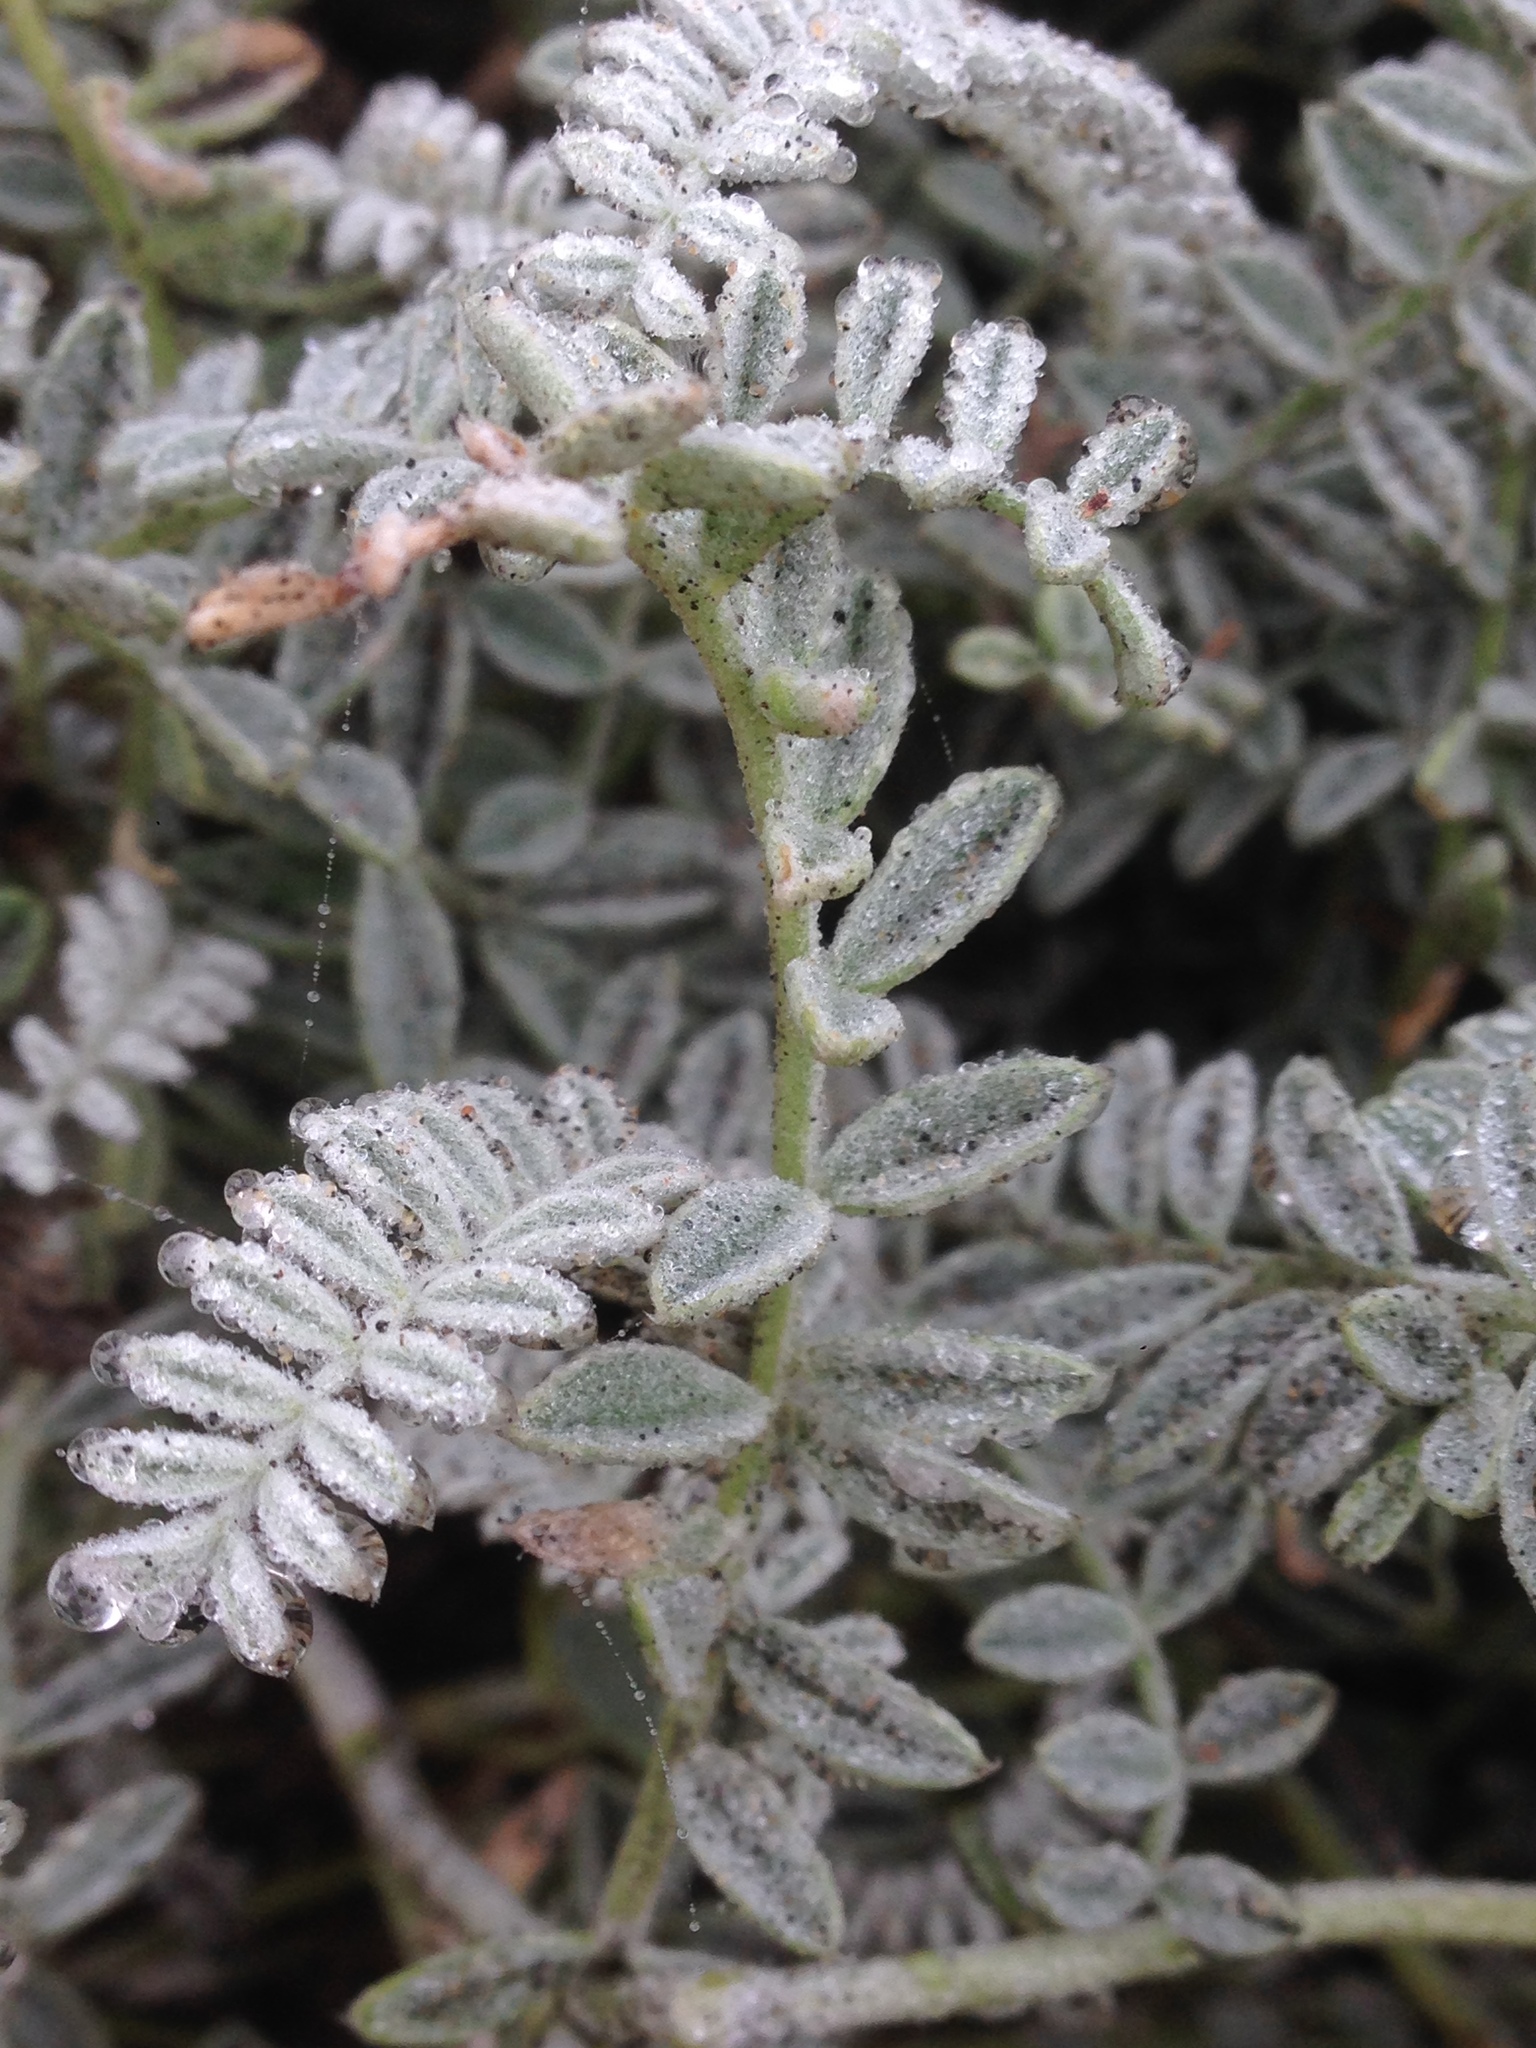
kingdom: Plantae
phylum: Tracheophyta
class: Magnoliopsida
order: Fabales
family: Fabaceae
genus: Astragalus
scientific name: Astragalus anemophilus
